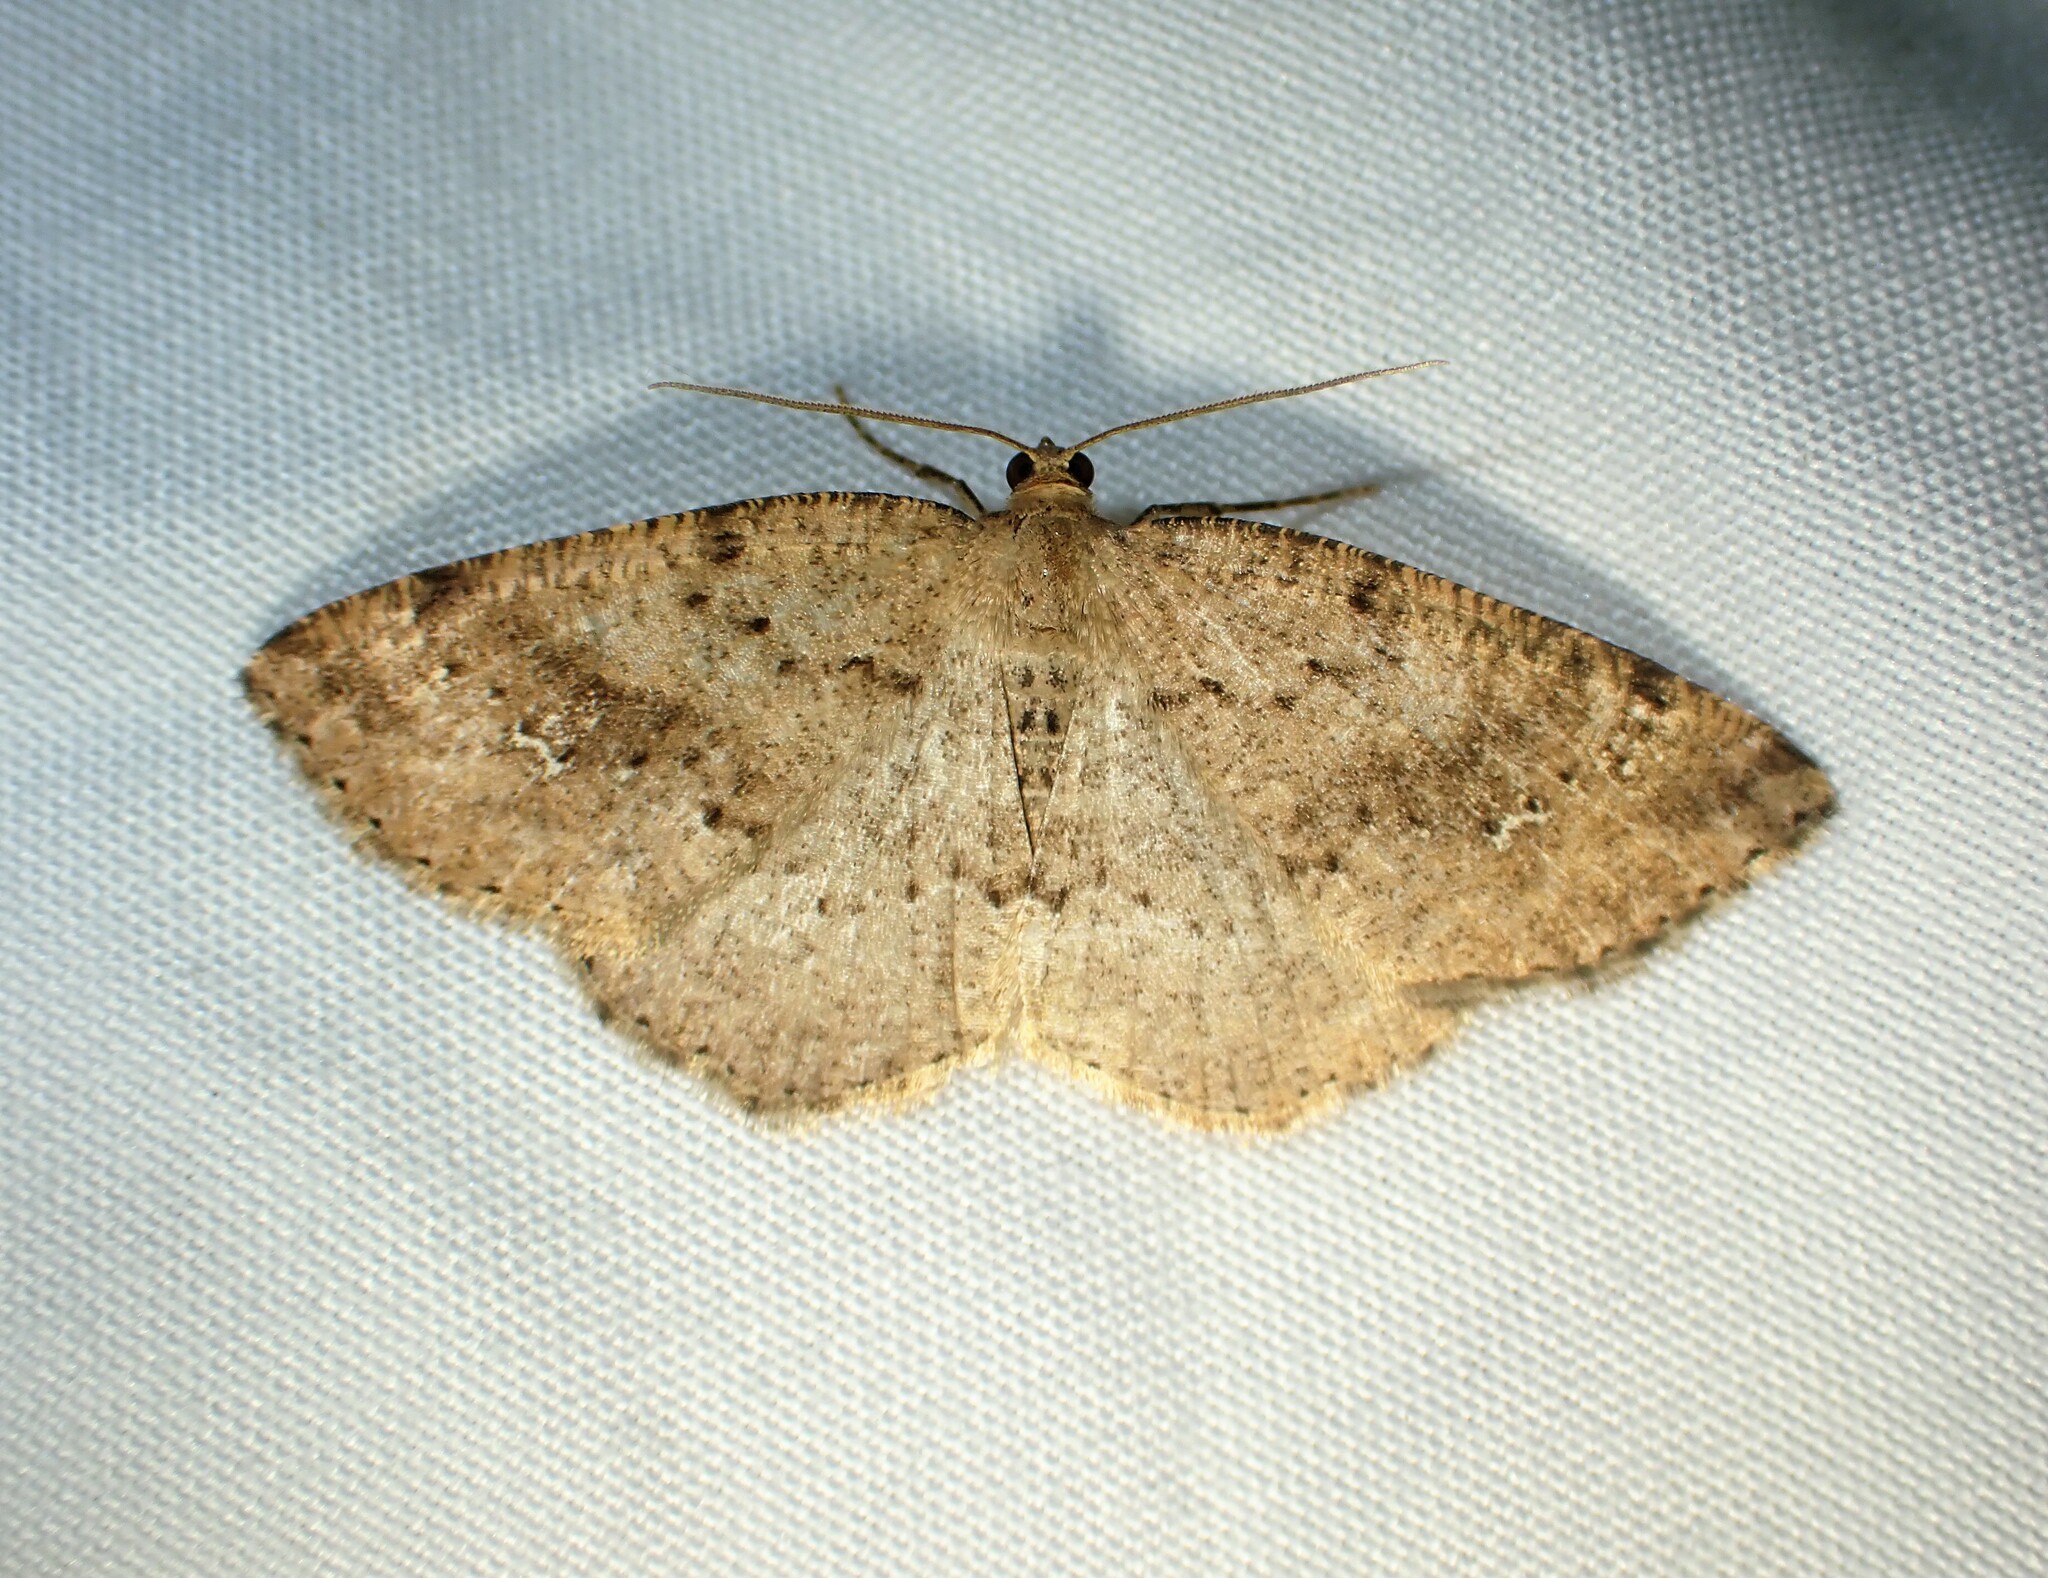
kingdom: Animalia
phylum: Arthropoda
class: Insecta
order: Lepidoptera
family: Geometridae
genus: Homochlodes
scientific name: Homochlodes fritillaria
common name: Pale homochlodes
